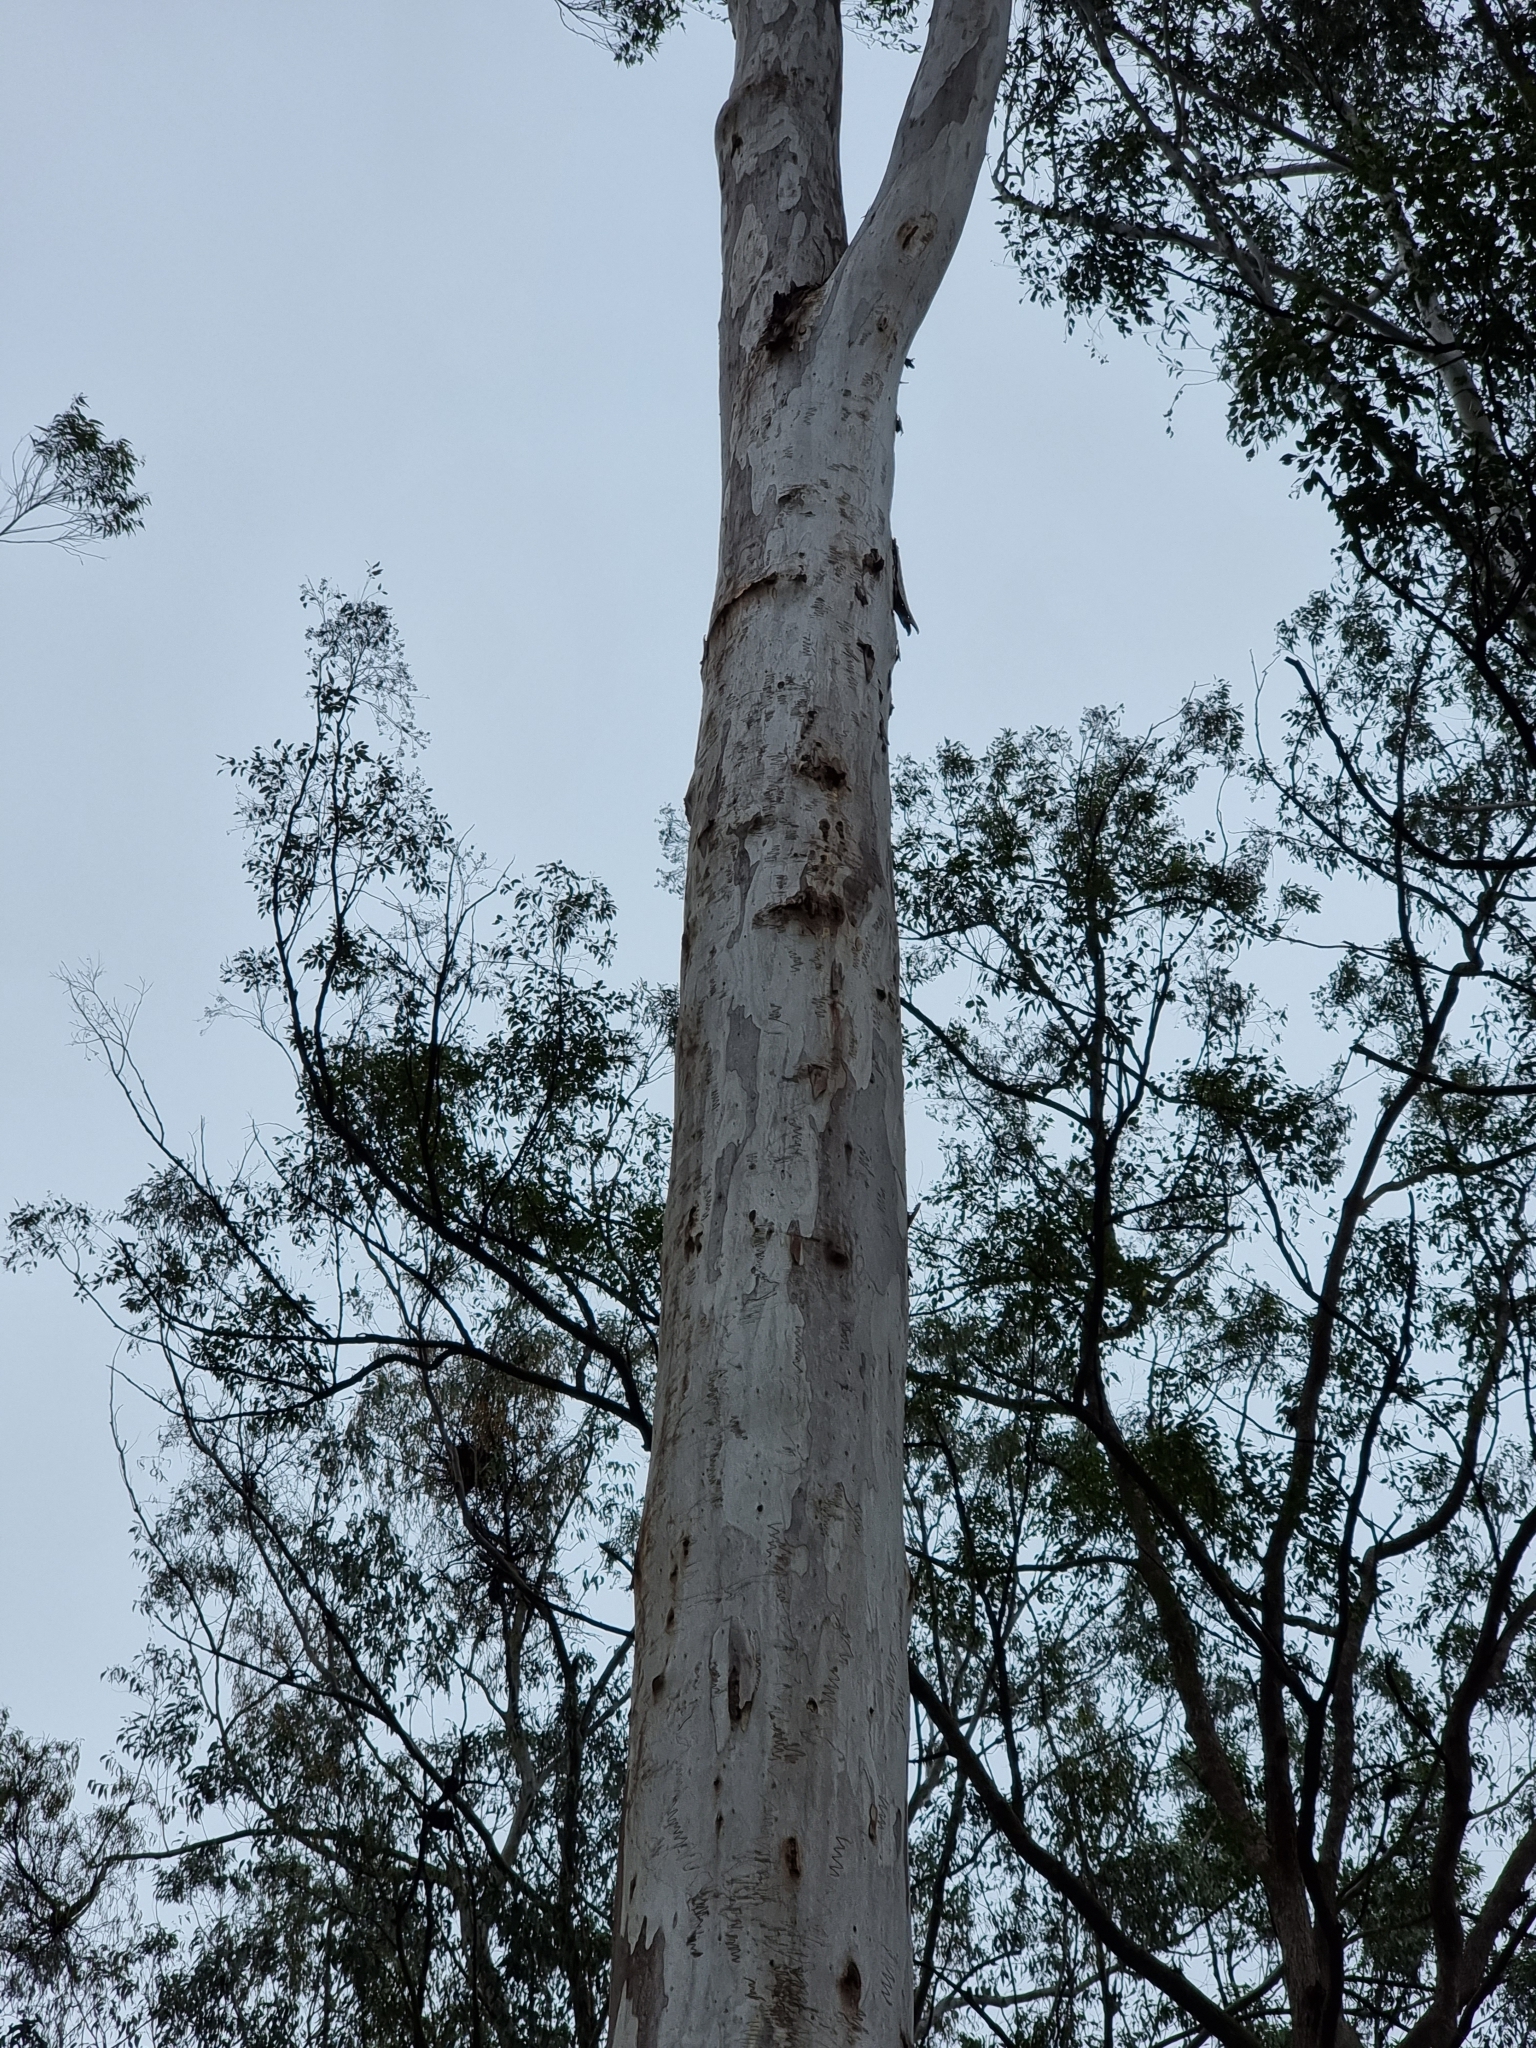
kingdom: Plantae
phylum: Tracheophyta
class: Magnoliopsida
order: Myrtales
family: Myrtaceae
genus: Eucalyptus
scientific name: Eucalyptus racemosa
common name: Scribbly gum
